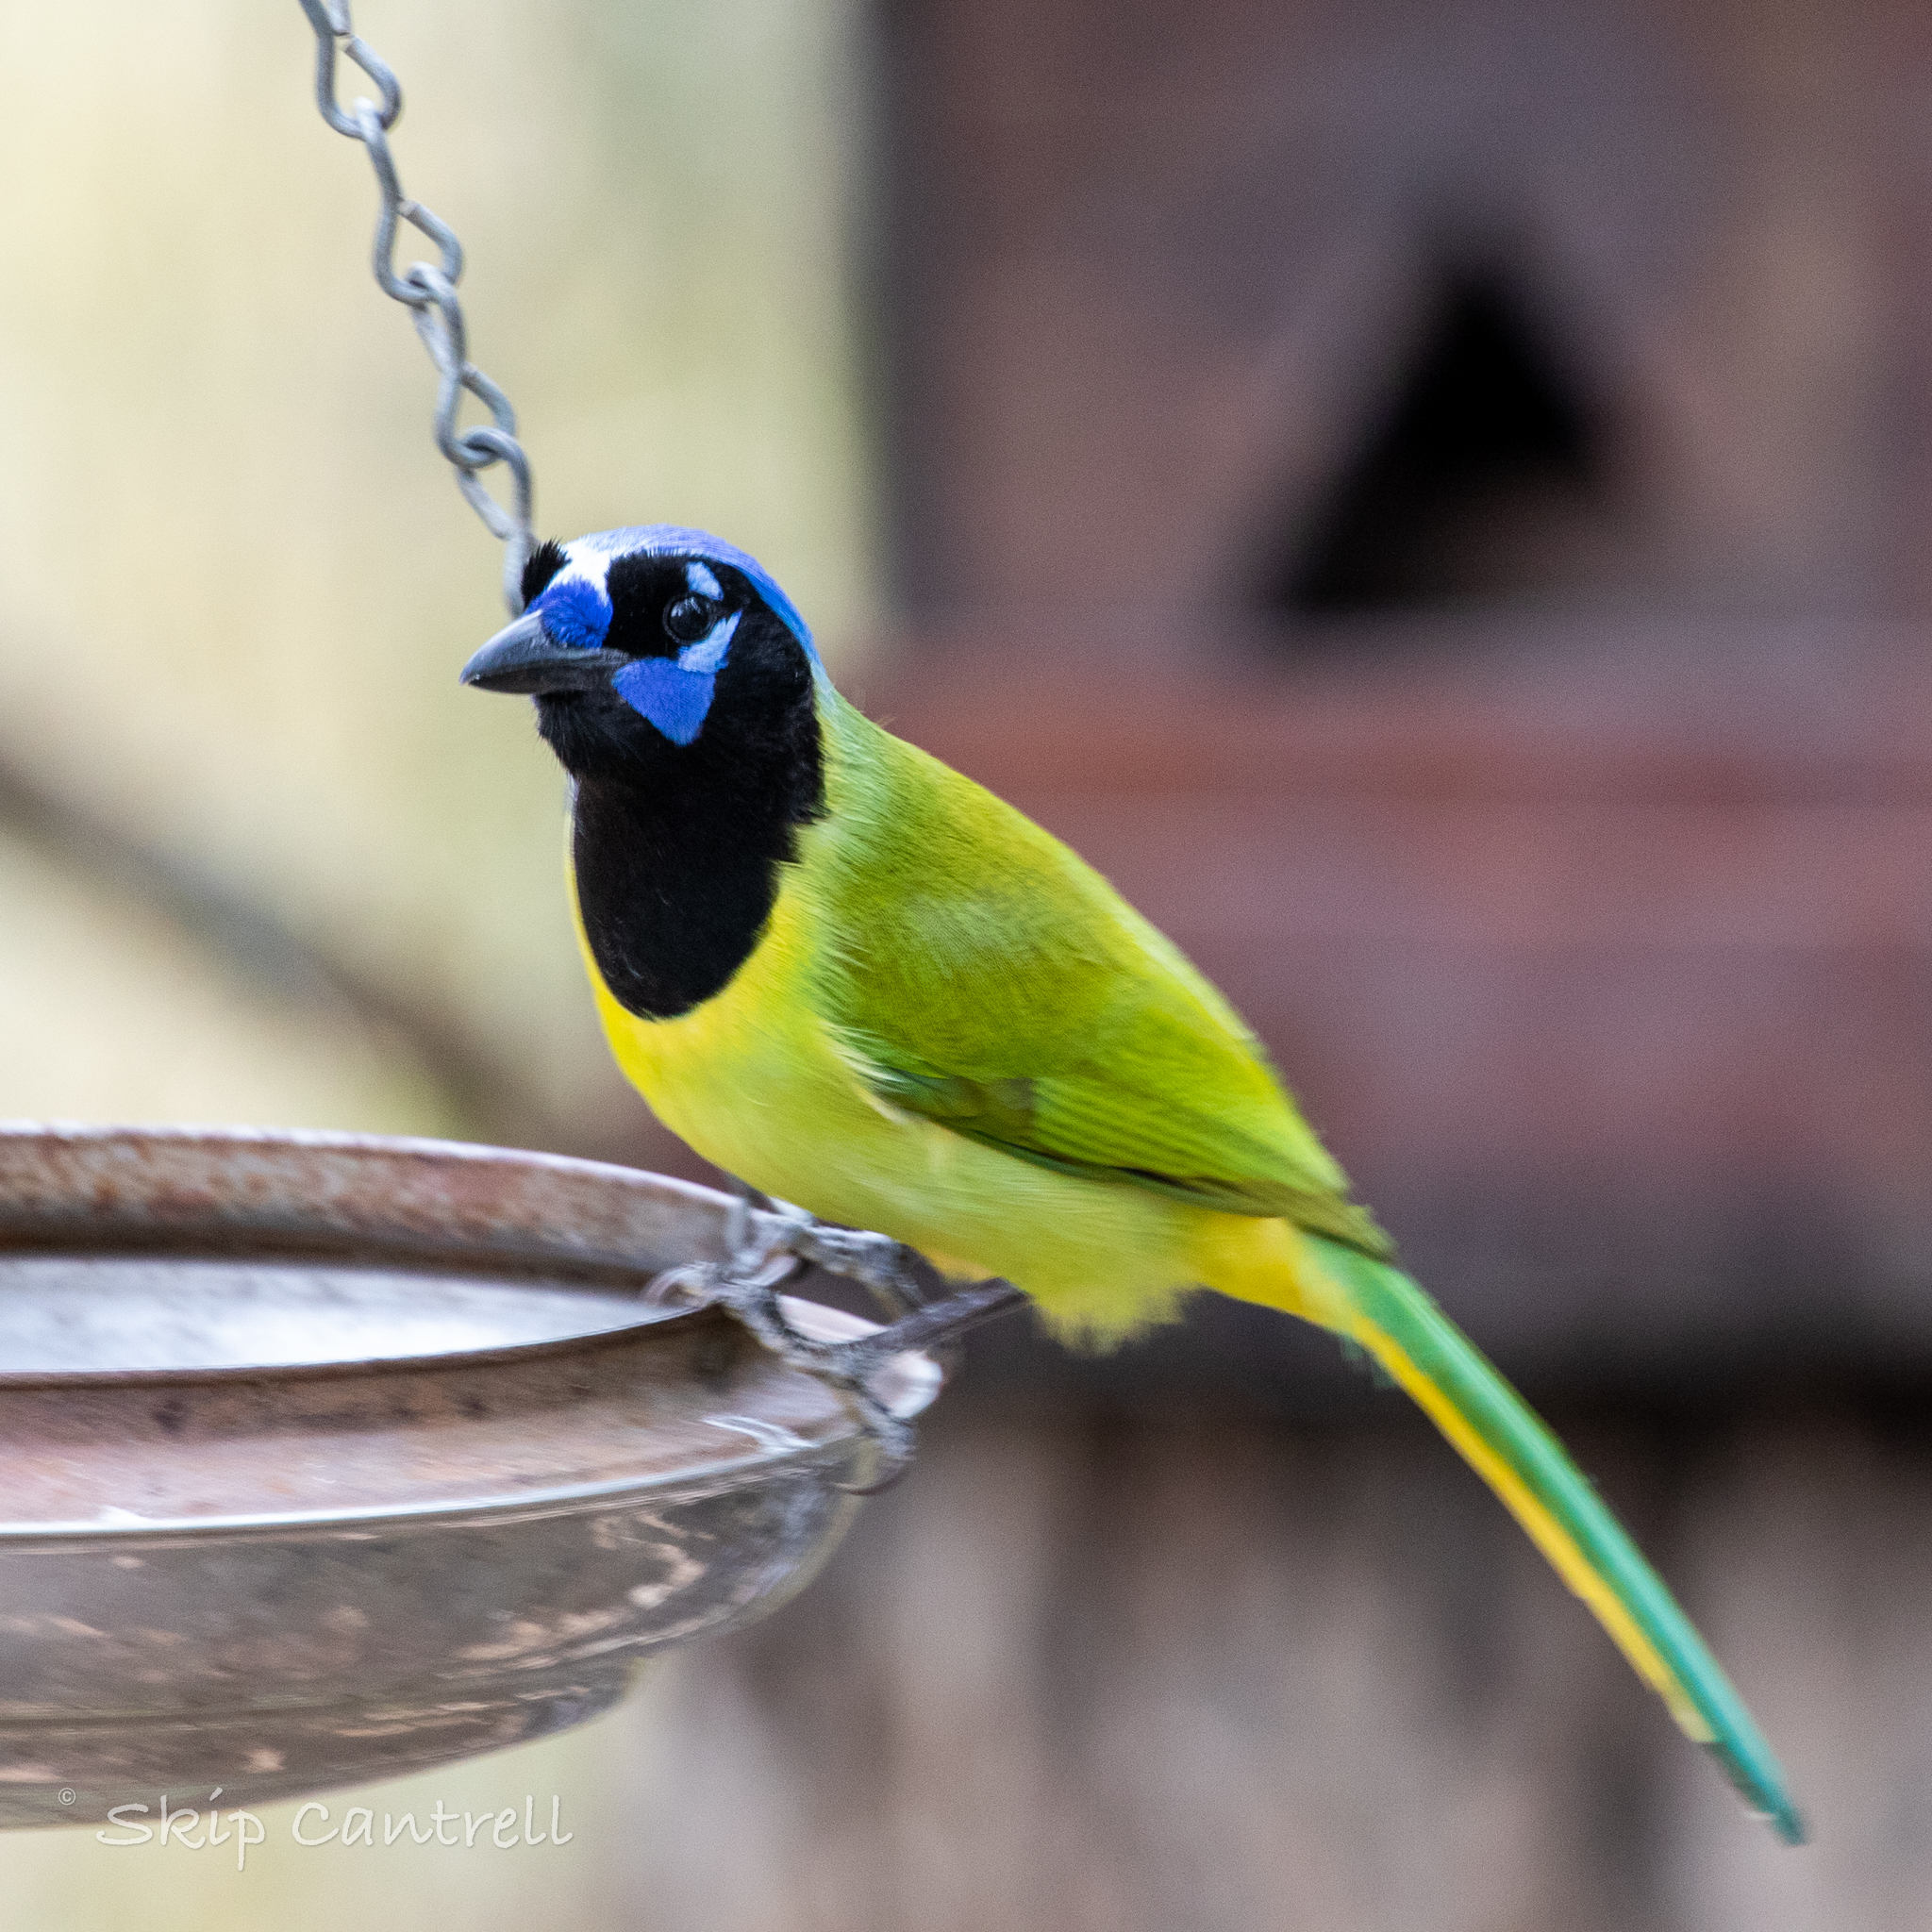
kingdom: Animalia
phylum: Chordata
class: Aves
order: Passeriformes
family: Corvidae
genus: Cyanocorax
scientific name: Cyanocorax yncas
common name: Green jay
